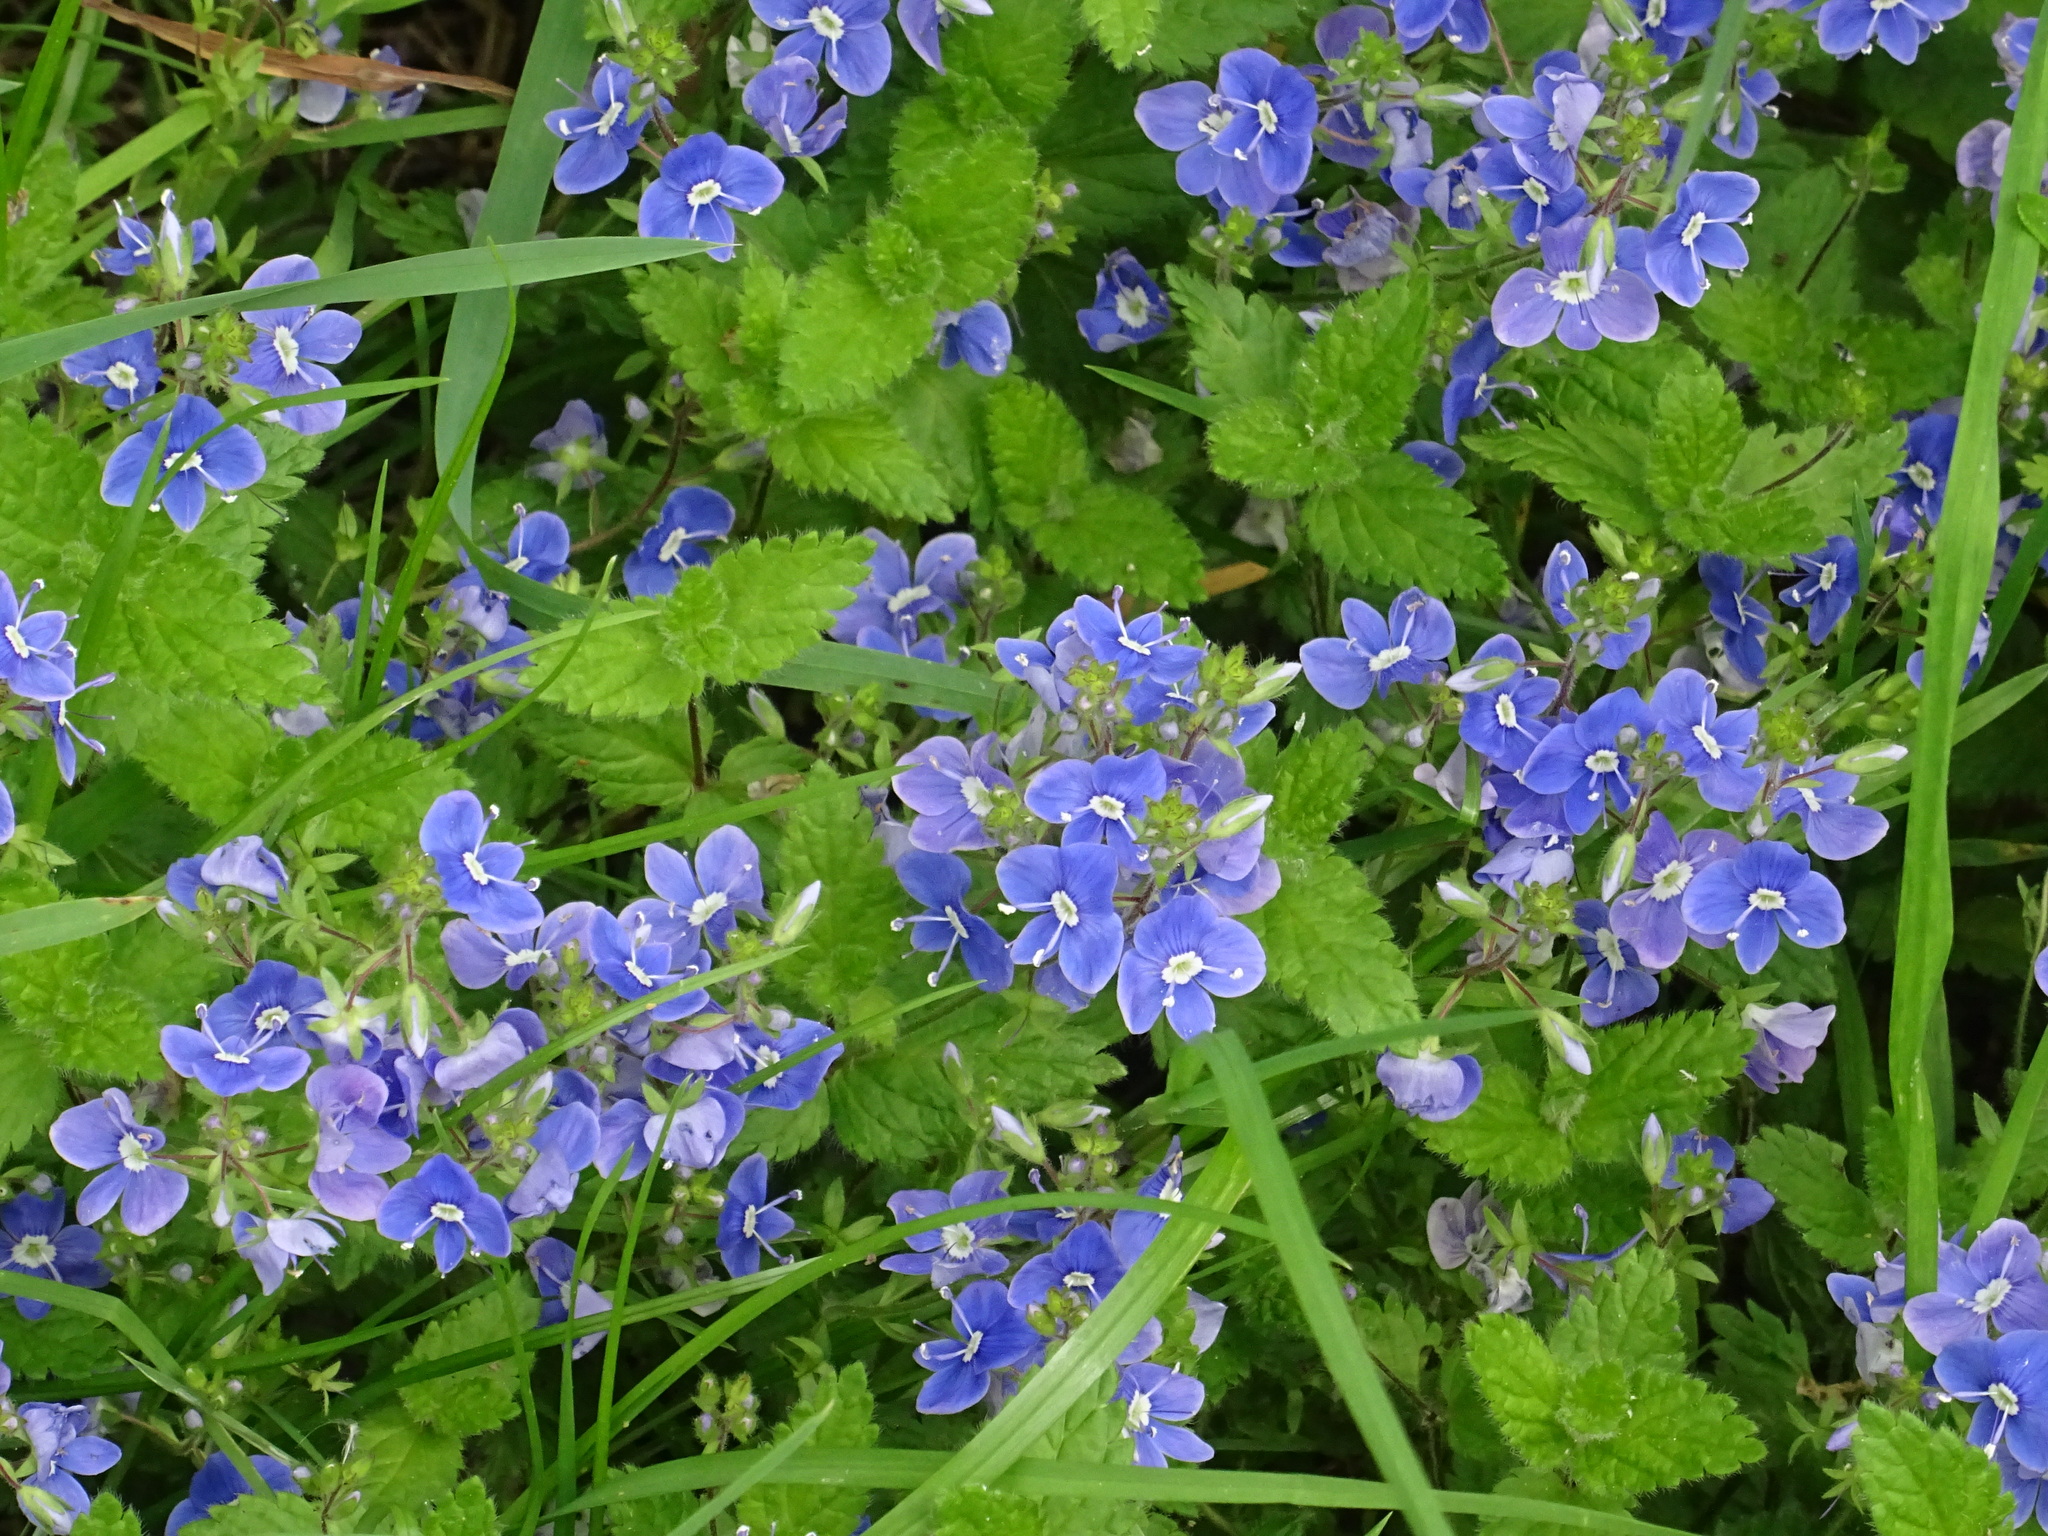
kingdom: Plantae
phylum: Tracheophyta
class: Magnoliopsida
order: Lamiales
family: Plantaginaceae
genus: Veronica
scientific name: Veronica chamaedrys
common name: Germander speedwell
